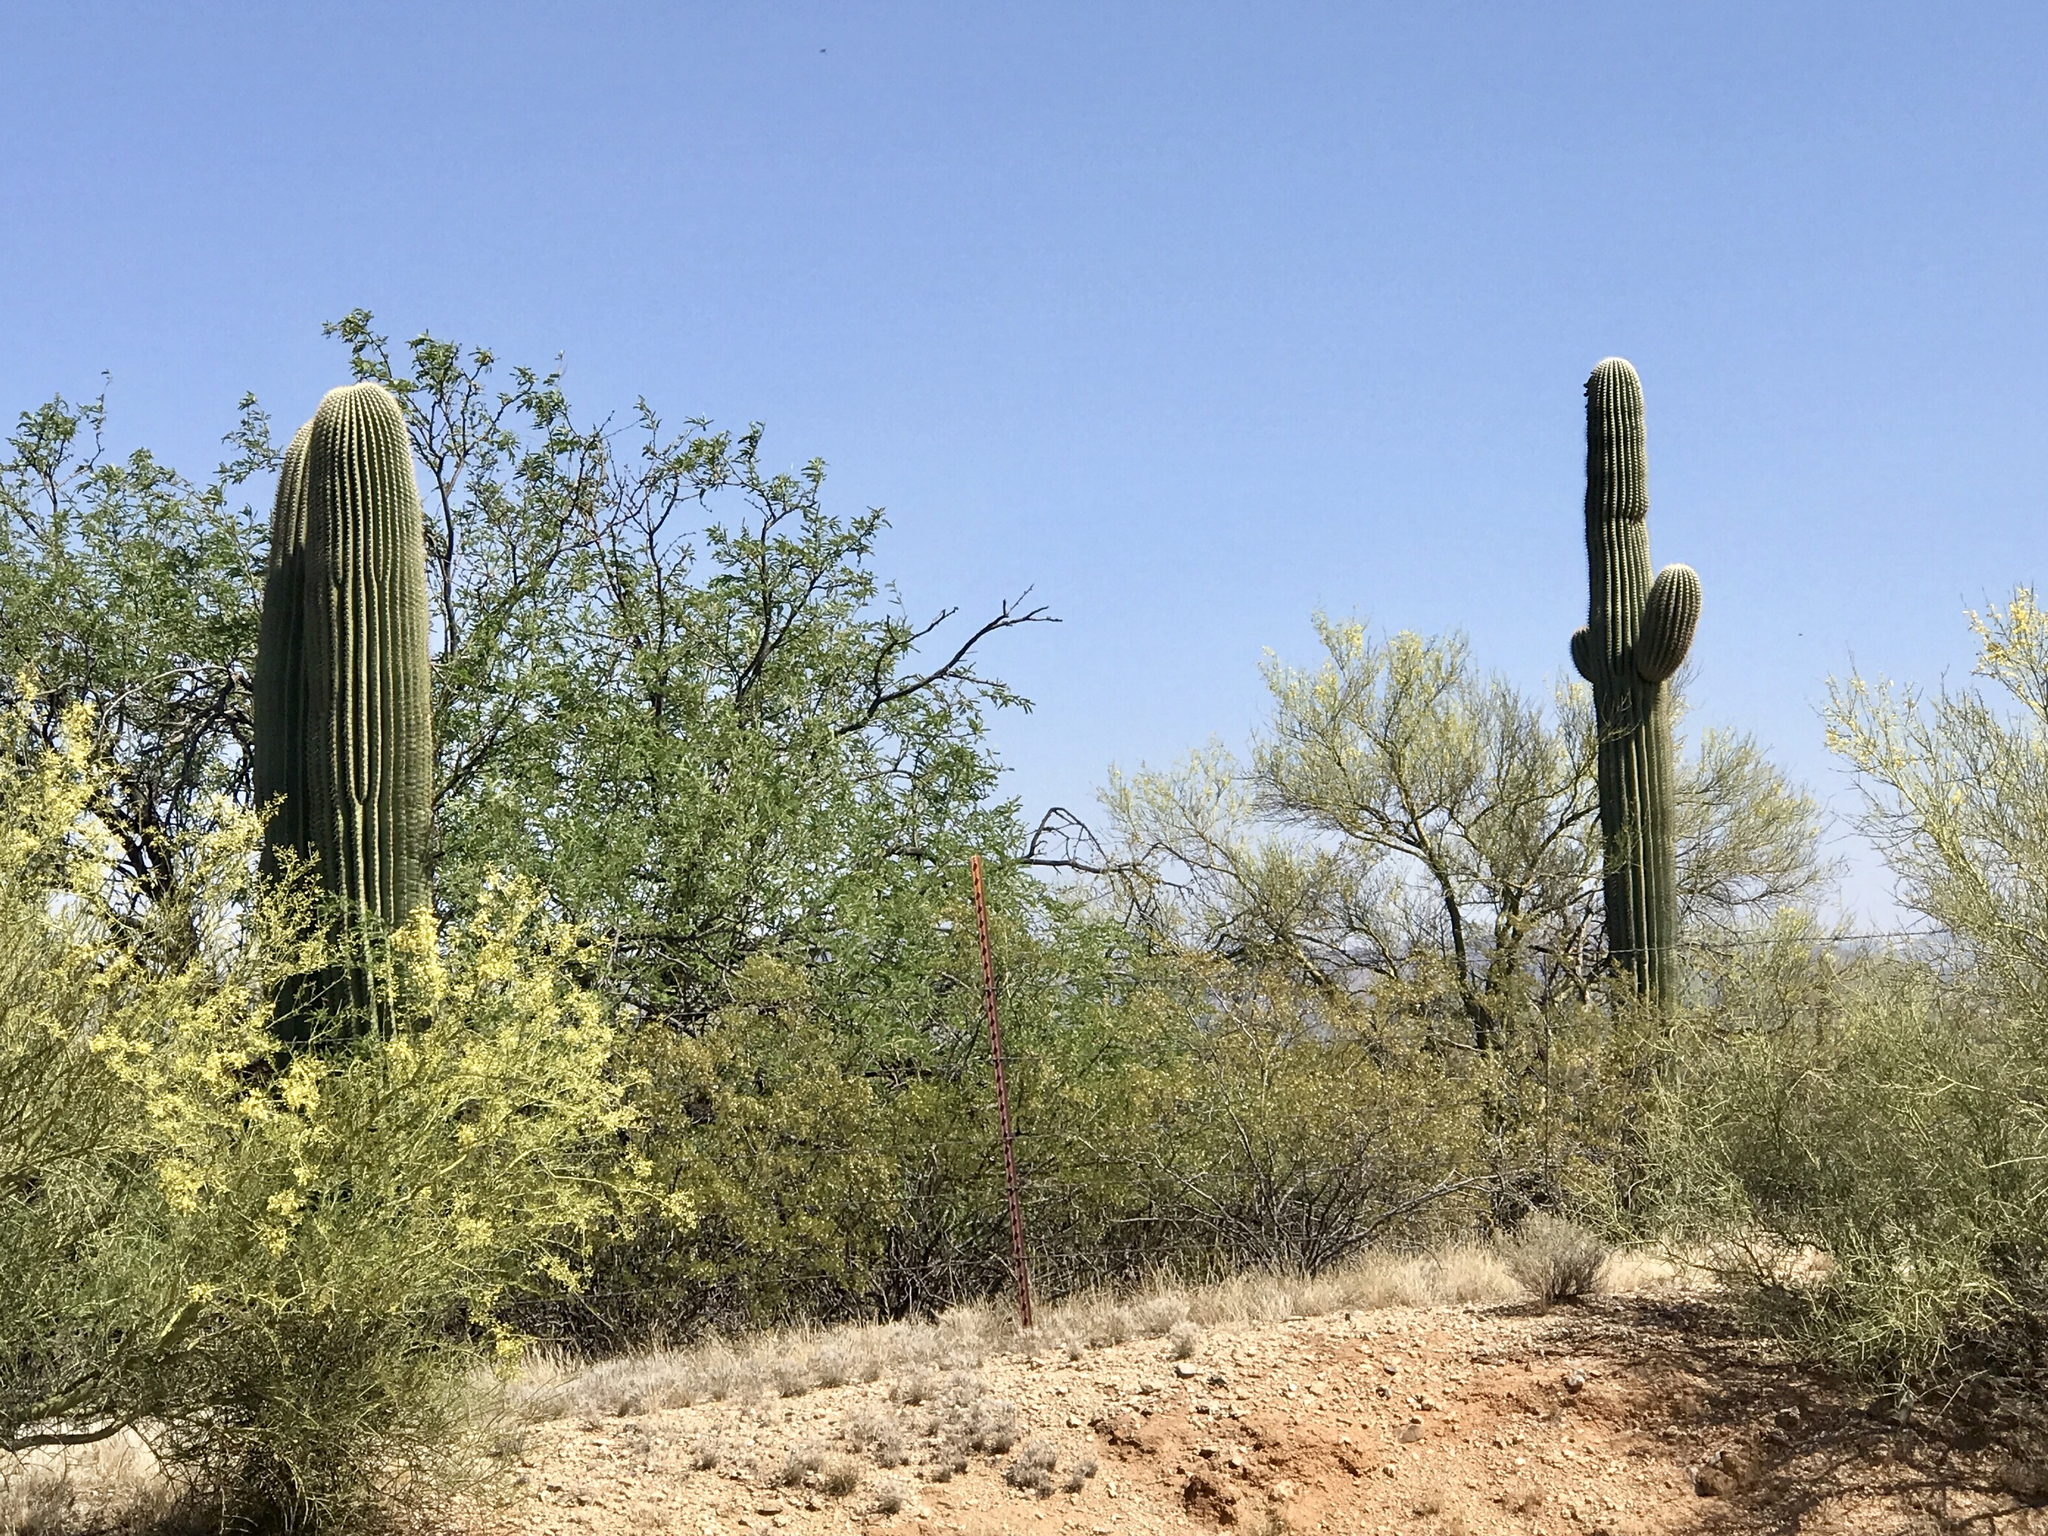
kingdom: Plantae
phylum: Tracheophyta
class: Magnoliopsida
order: Caryophyllales
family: Cactaceae
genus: Carnegiea
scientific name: Carnegiea gigantea
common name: Saguaro
